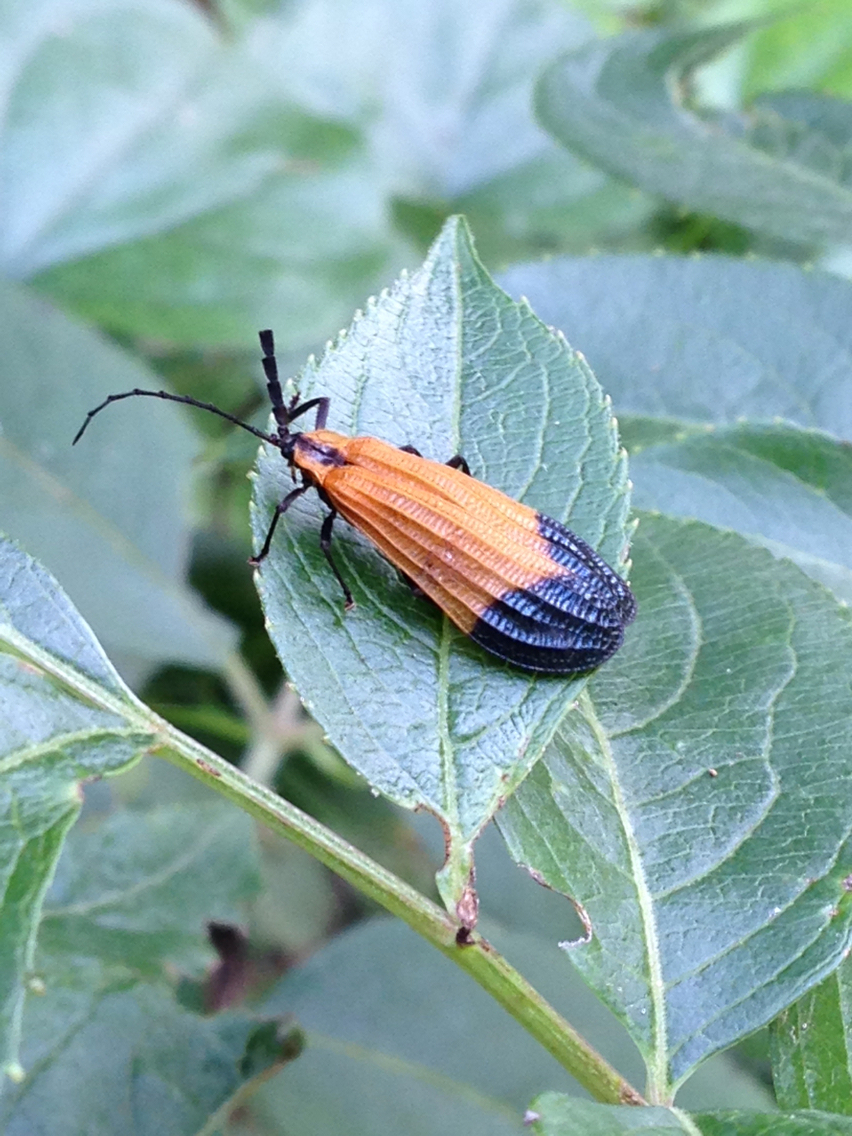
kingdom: Animalia
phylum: Arthropoda
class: Insecta
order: Coleoptera
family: Lycidae
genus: Calopteron
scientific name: Calopteron terminale
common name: End band net-winged beetle
